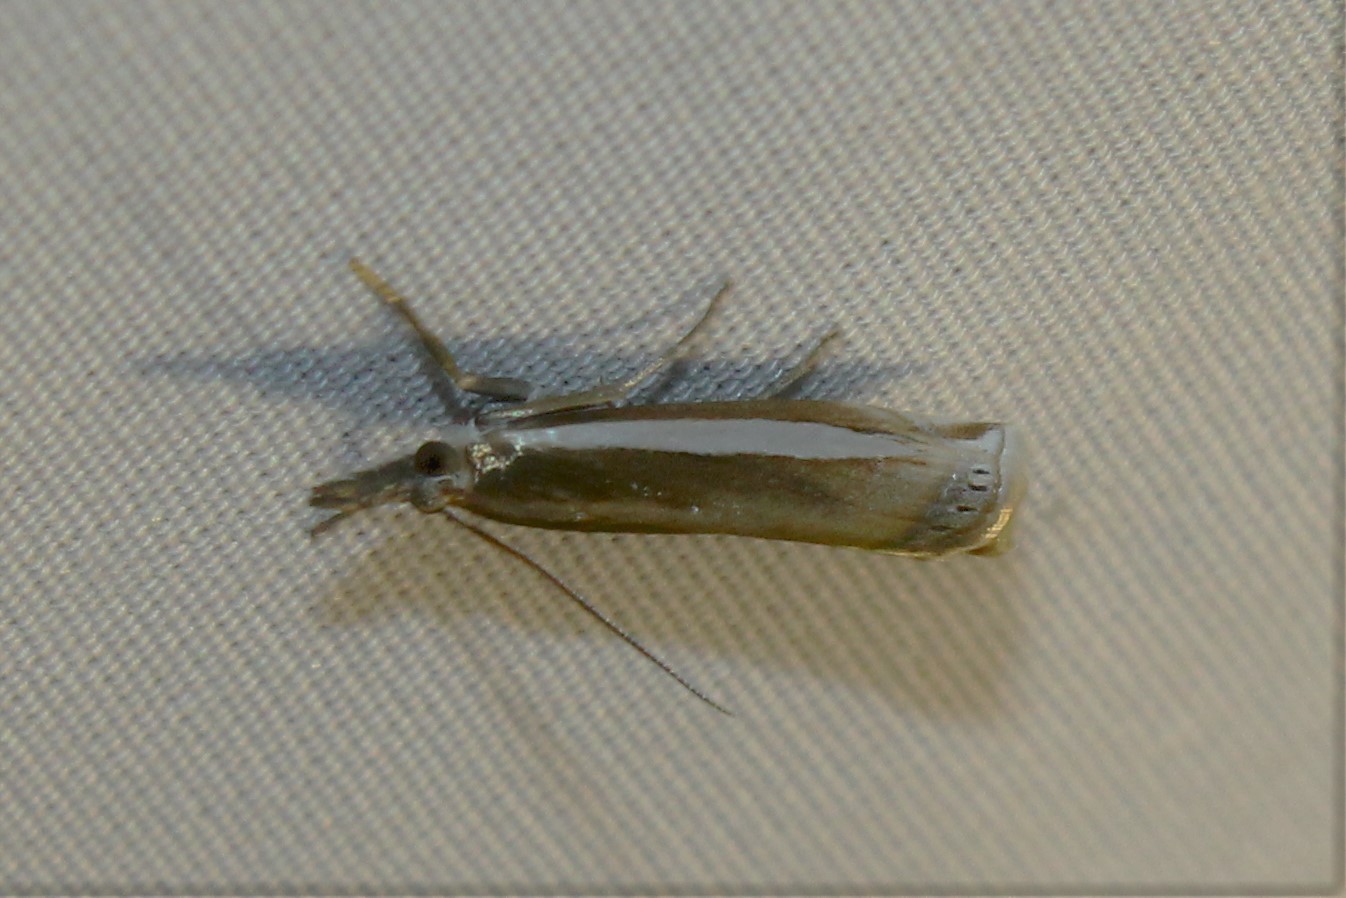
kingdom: Animalia
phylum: Arthropoda
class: Insecta
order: Lepidoptera
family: Crambidae
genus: Crambus
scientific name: Crambus praefectellus
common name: Common grass-veneer
